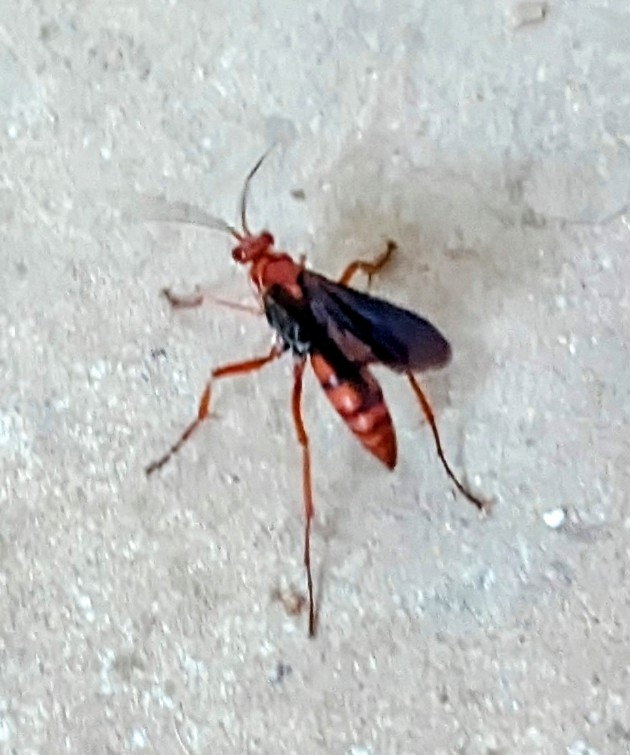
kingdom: Animalia
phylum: Arthropoda
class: Insecta
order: Hymenoptera
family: Pompilidae
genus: Tachypompilus
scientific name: Tachypompilus ferrugineus
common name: Rusty spider wasp
